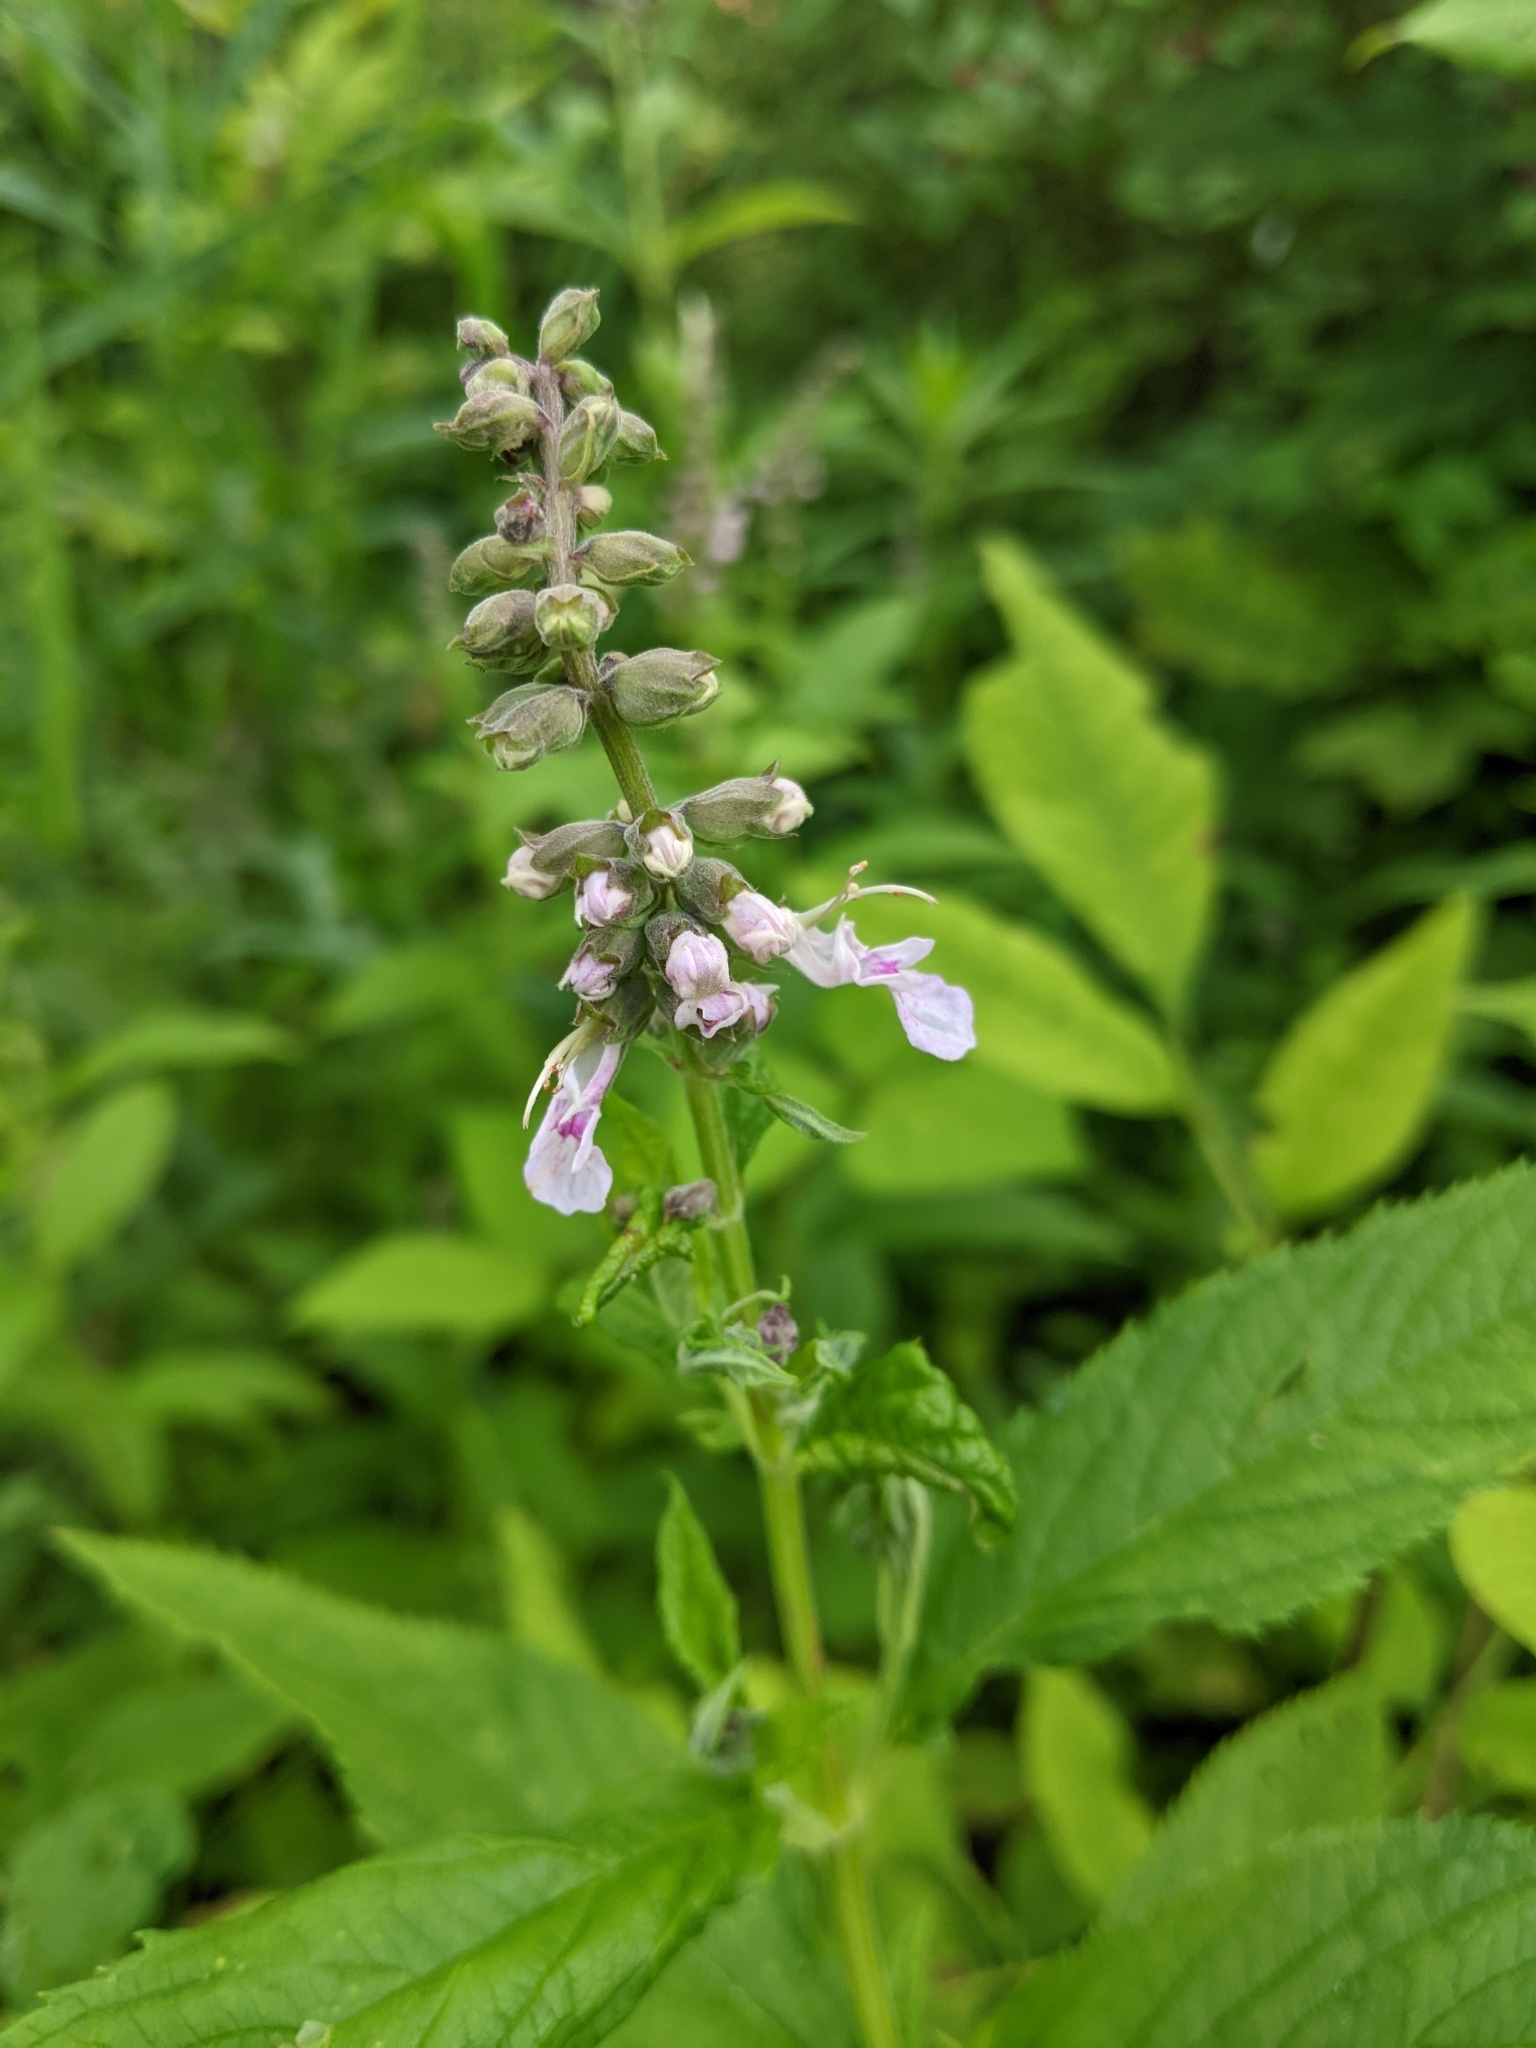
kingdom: Plantae
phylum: Tracheophyta
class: Magnoliopsida
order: Lamiales
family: Lamiaceae
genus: Teucrium
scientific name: Teucrium canadense
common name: American germander
